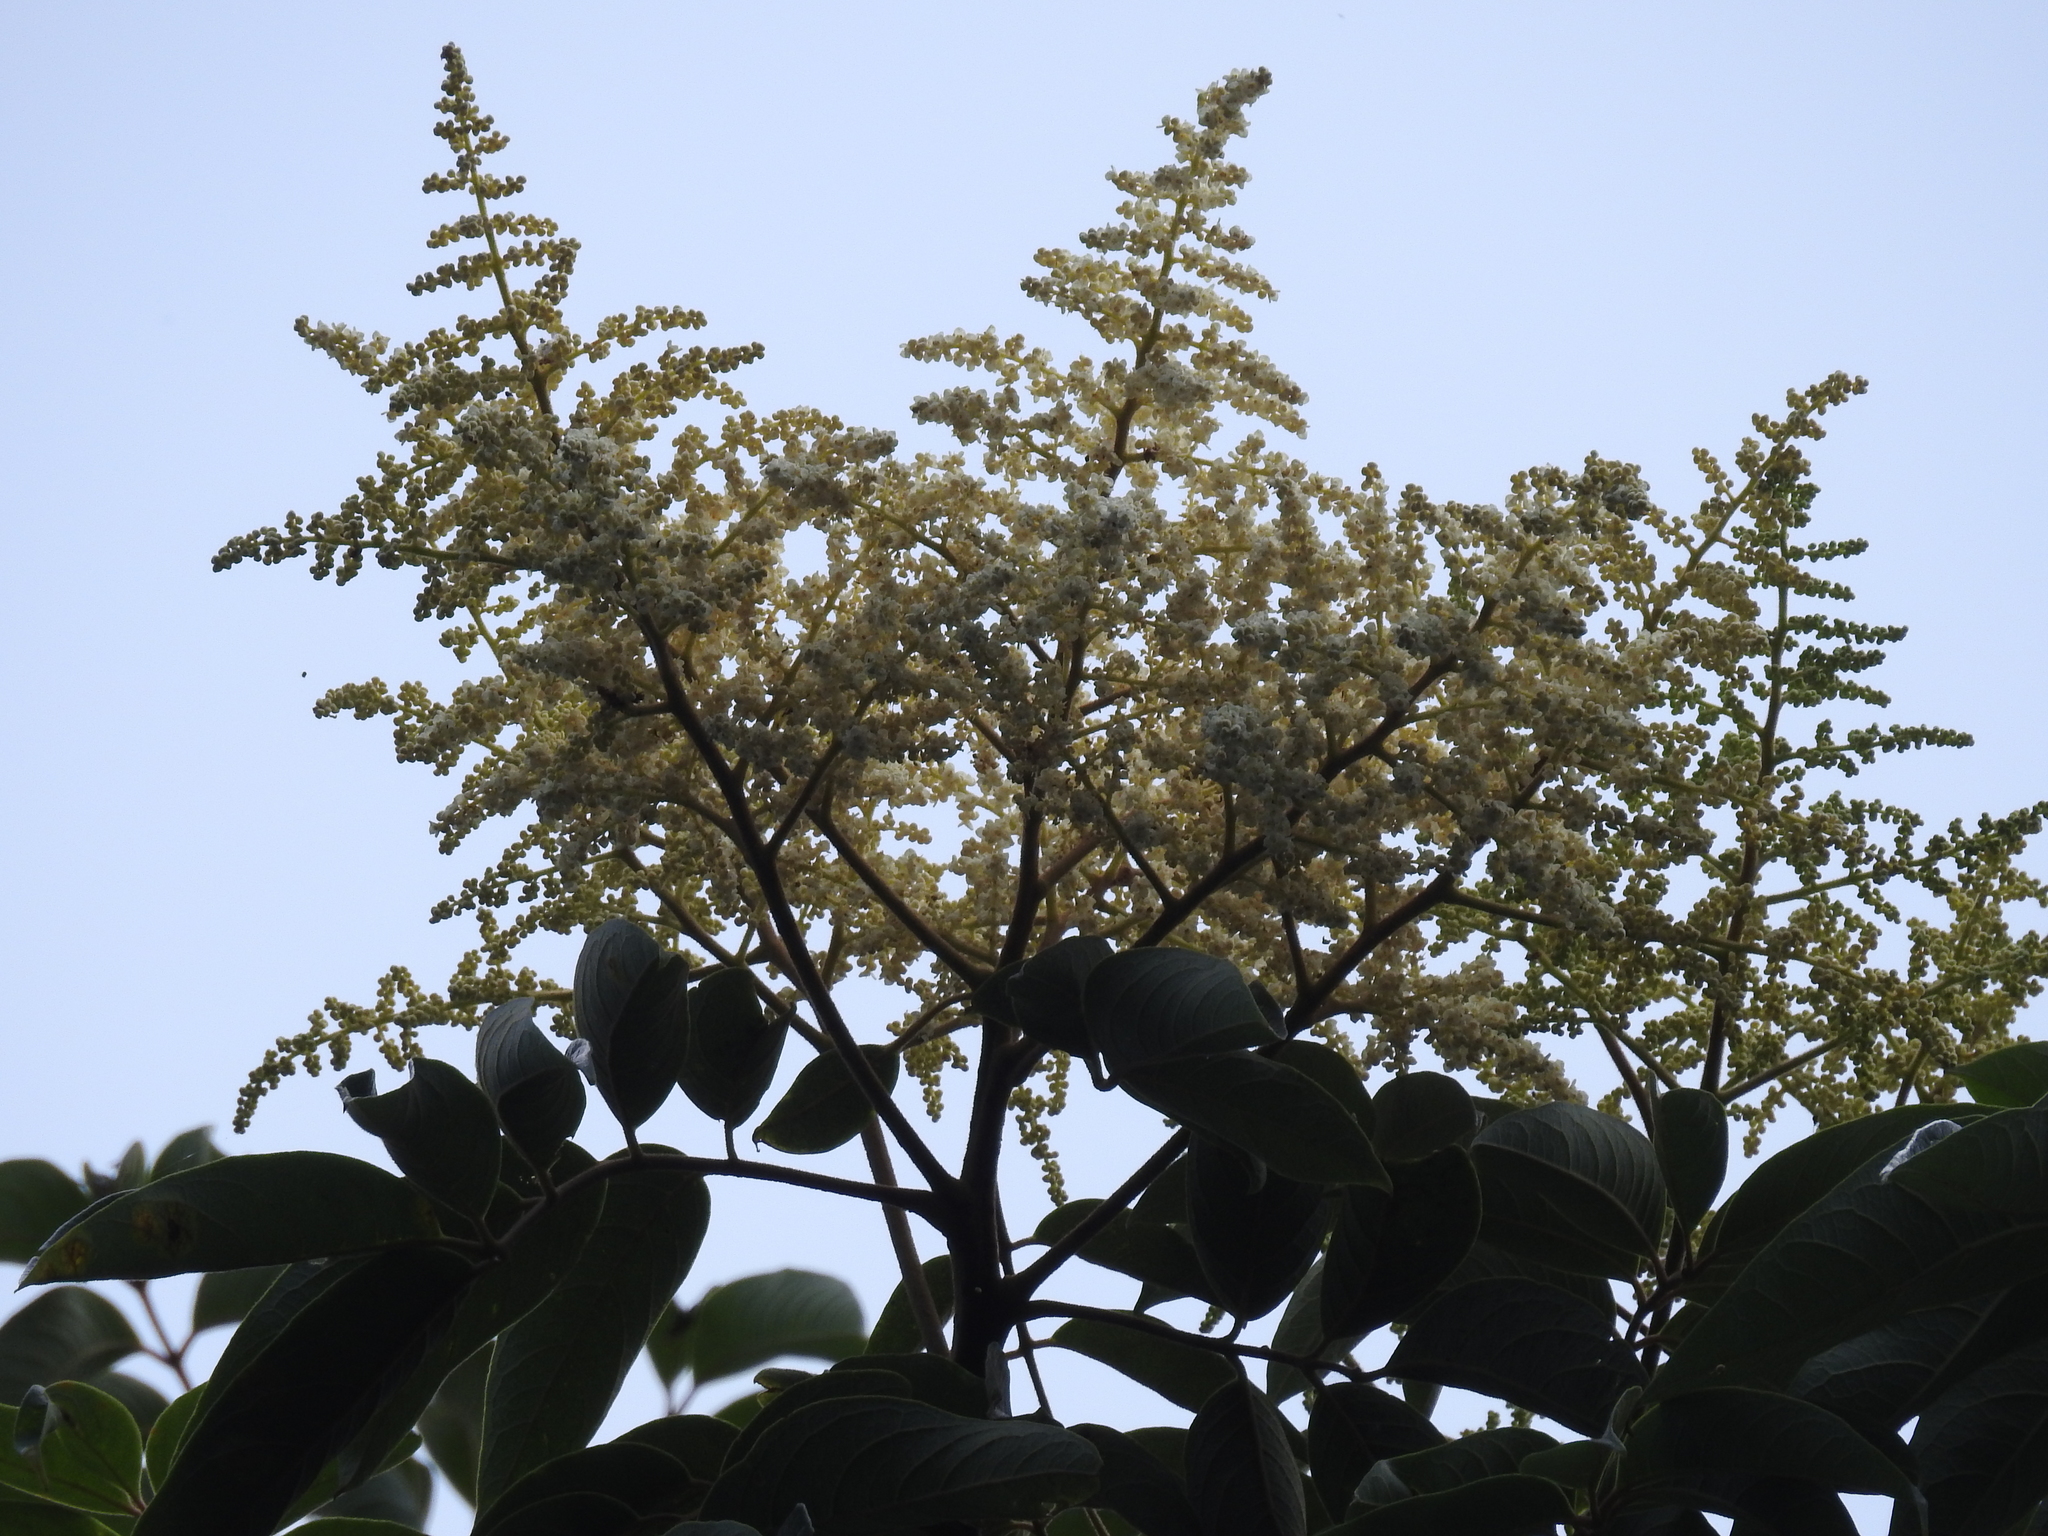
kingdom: Plantae
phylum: Tracheophyta
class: Magnoliopsida
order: Proteales
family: Sabiaceae
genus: Meliosma
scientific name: Meliosma pinnata
